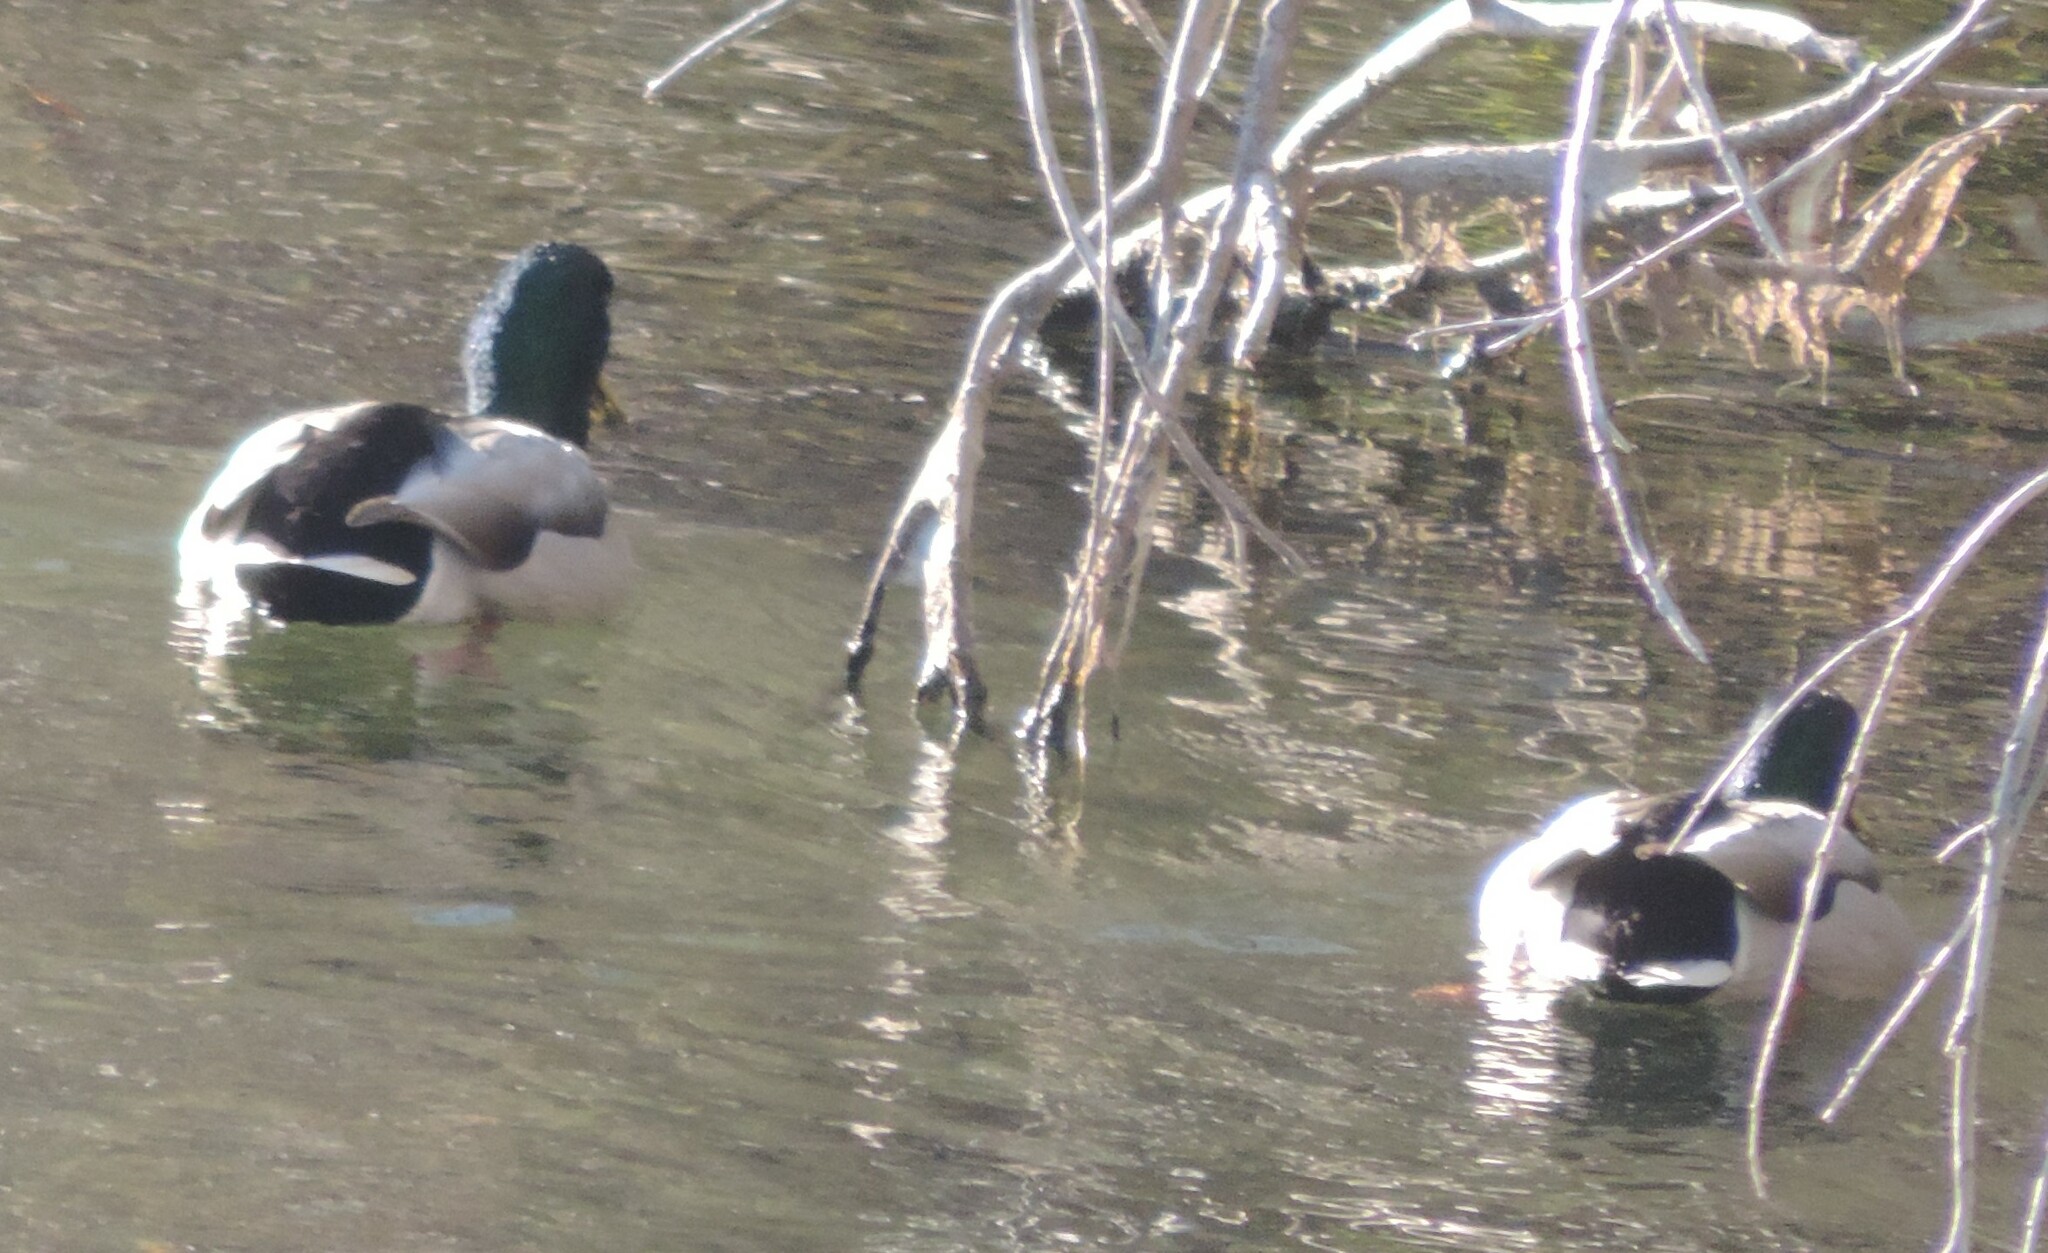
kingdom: Animalia
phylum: Chordata
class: Aves
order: Anseriformes
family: Anatidae
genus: Anas
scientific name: Anas platyrhynchos
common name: Mallard
